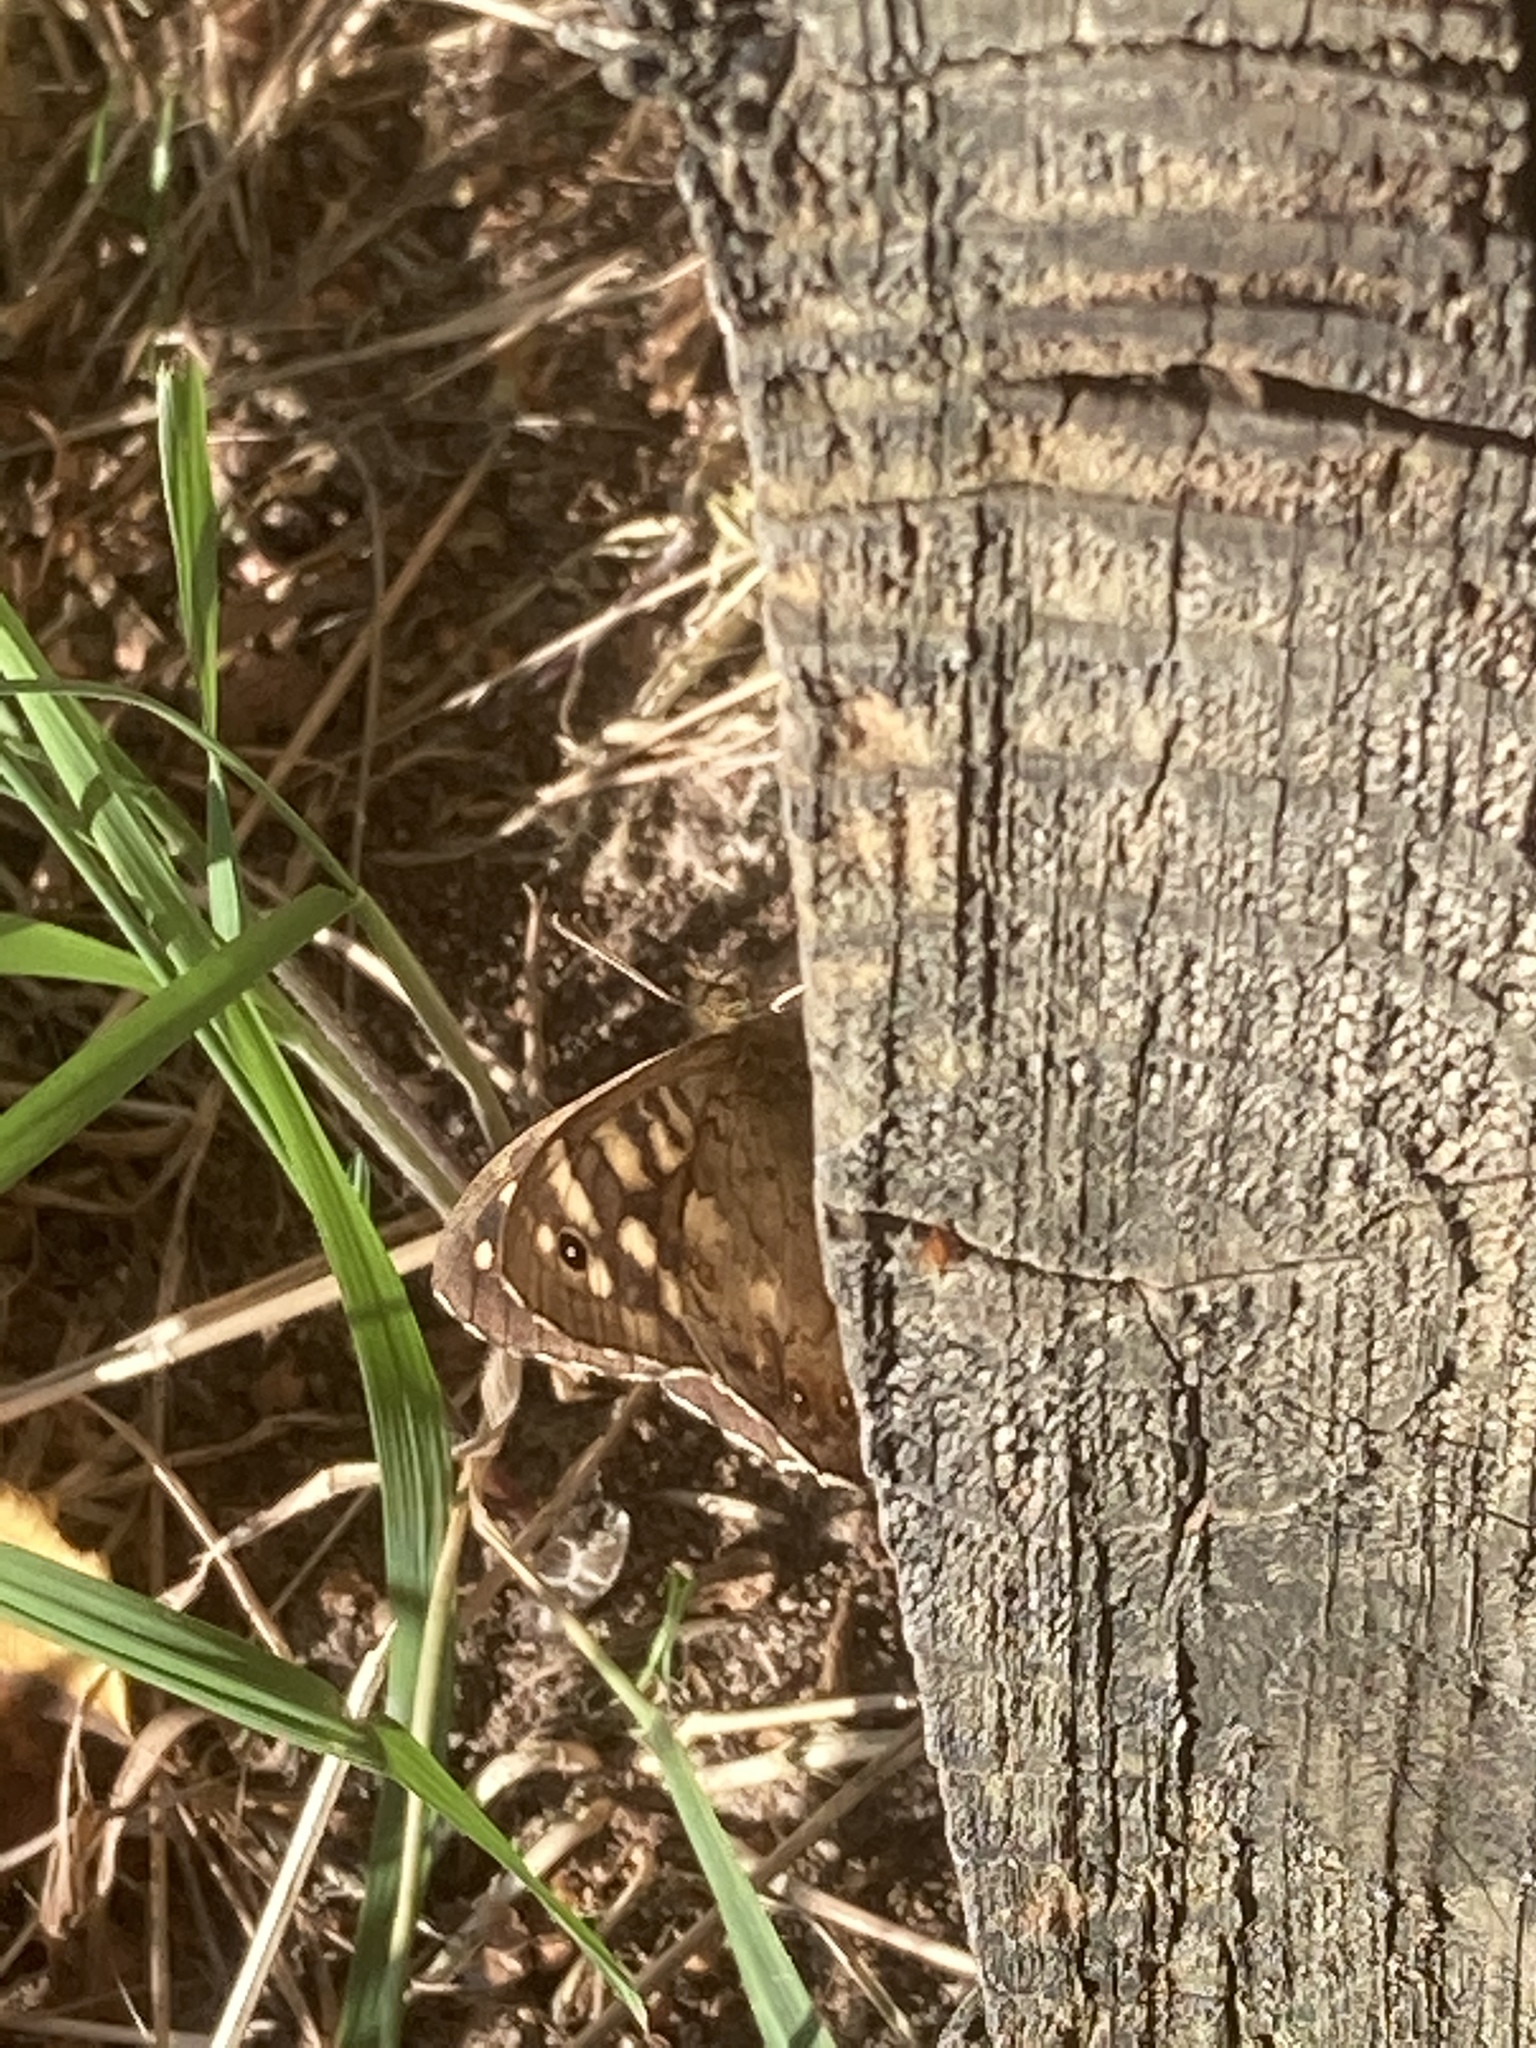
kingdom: Animalia
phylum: Arthropoda
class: Insecta
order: Lepidoptera
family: Nymphalidae
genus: Pararge
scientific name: Pararge aegeria
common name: Speckled wood
